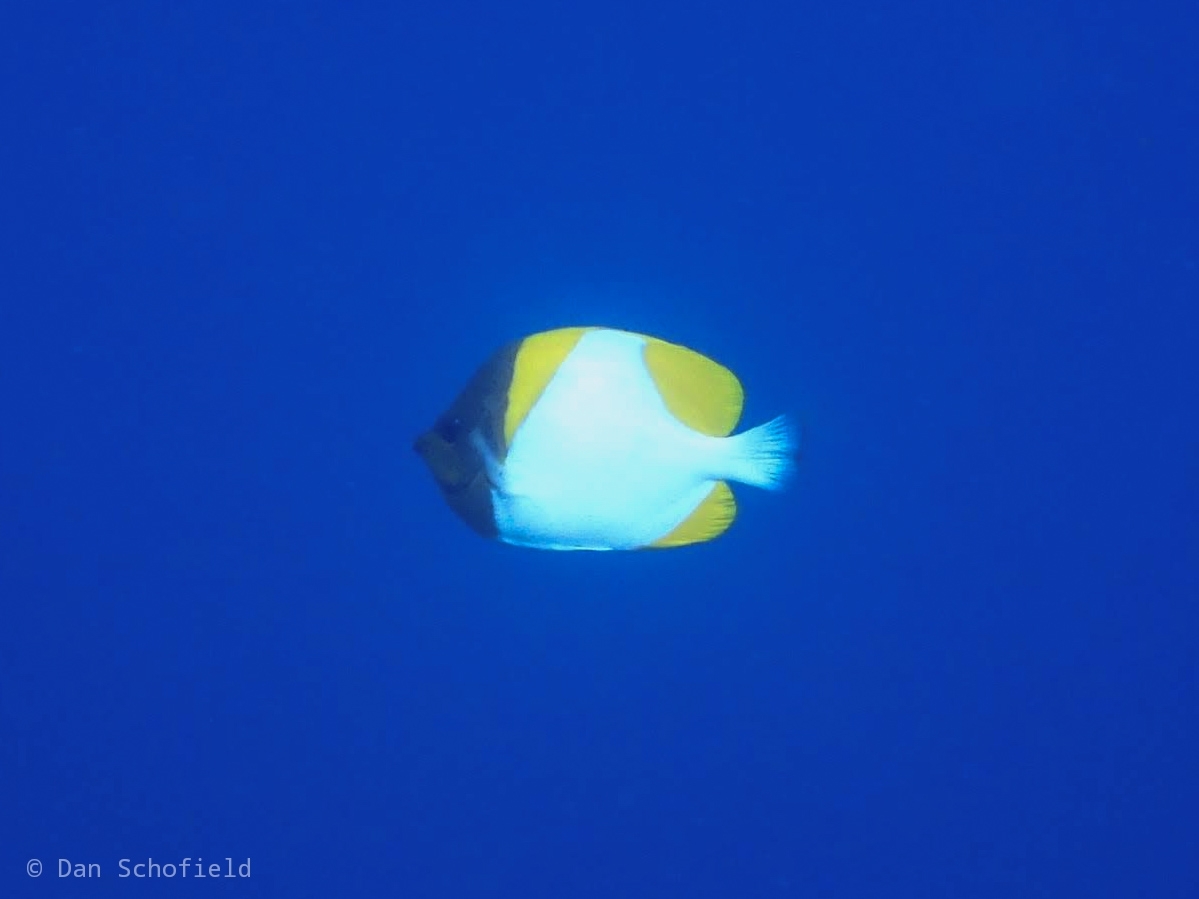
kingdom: Animalia
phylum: Chordata
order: Perciformes
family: Chaetodontidae
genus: Hemitaurichthys
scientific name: Hemitaurichthys polylepis
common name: Brushytoothed butterflyfish
